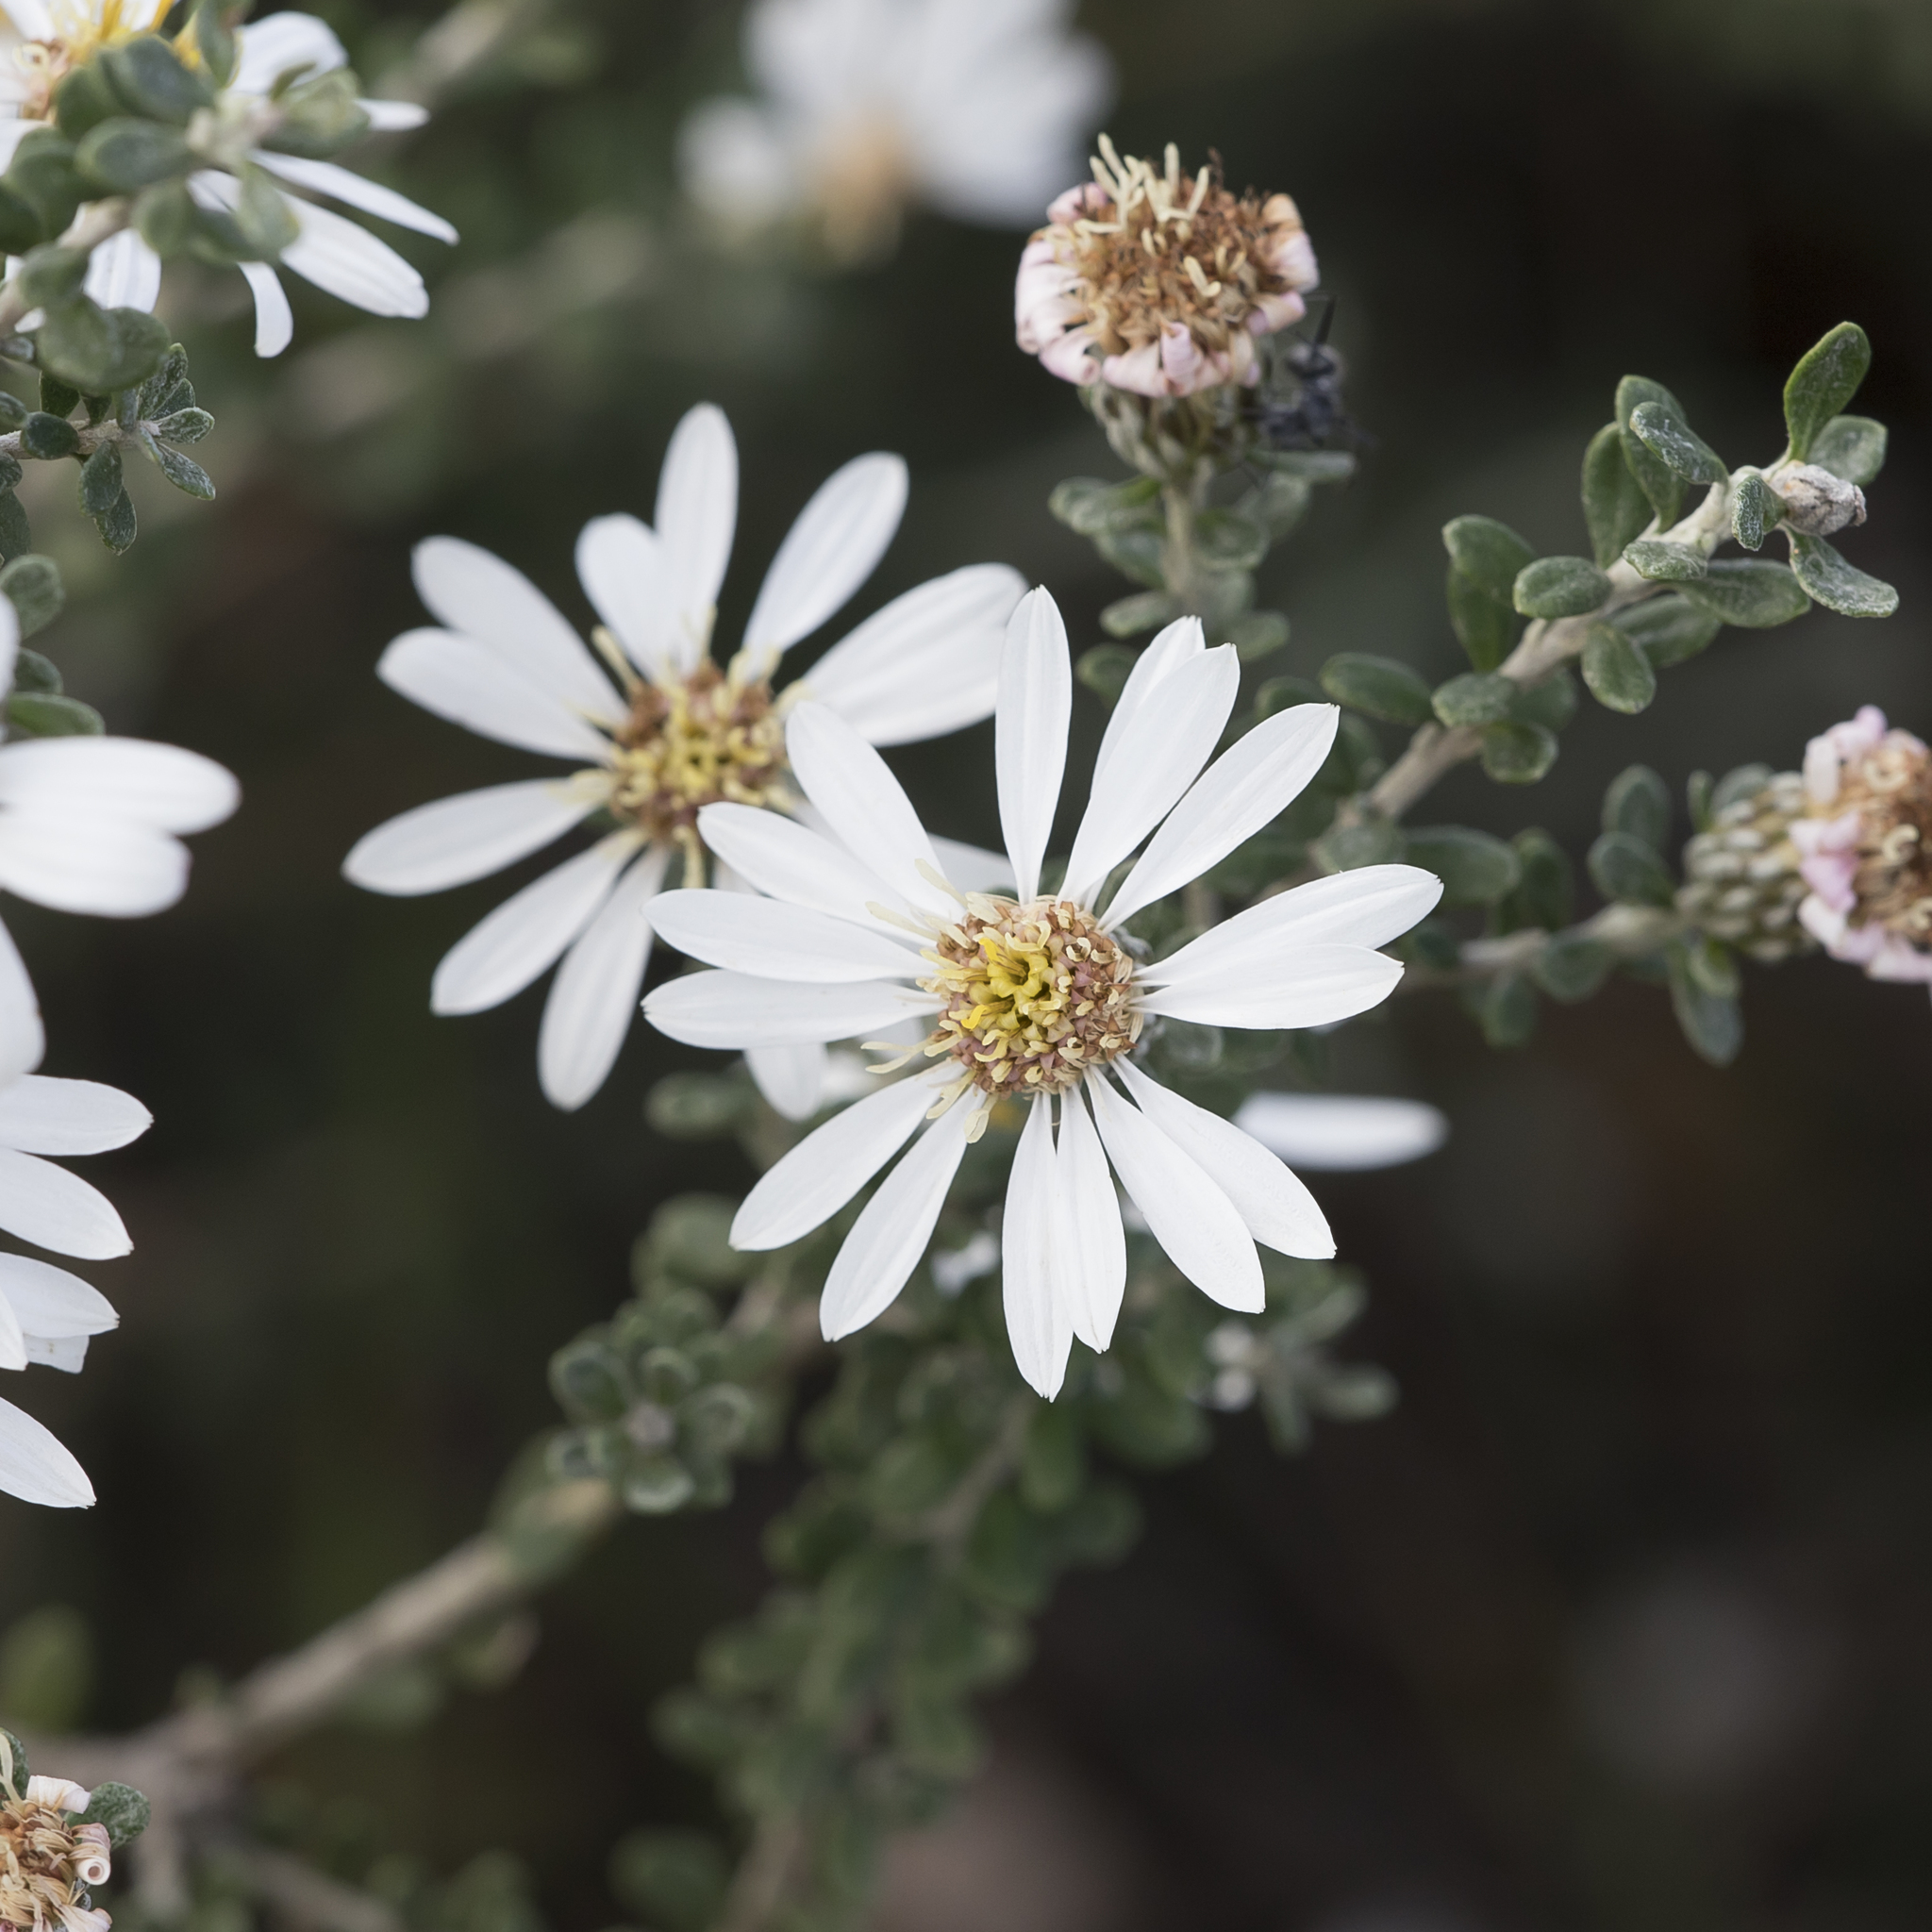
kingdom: Plantae
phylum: Tracheophyta
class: Magnoliopsida
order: Asterales
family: Asteraceae
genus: Olearia
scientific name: Olearia pimeleoides
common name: Showy daisybush
